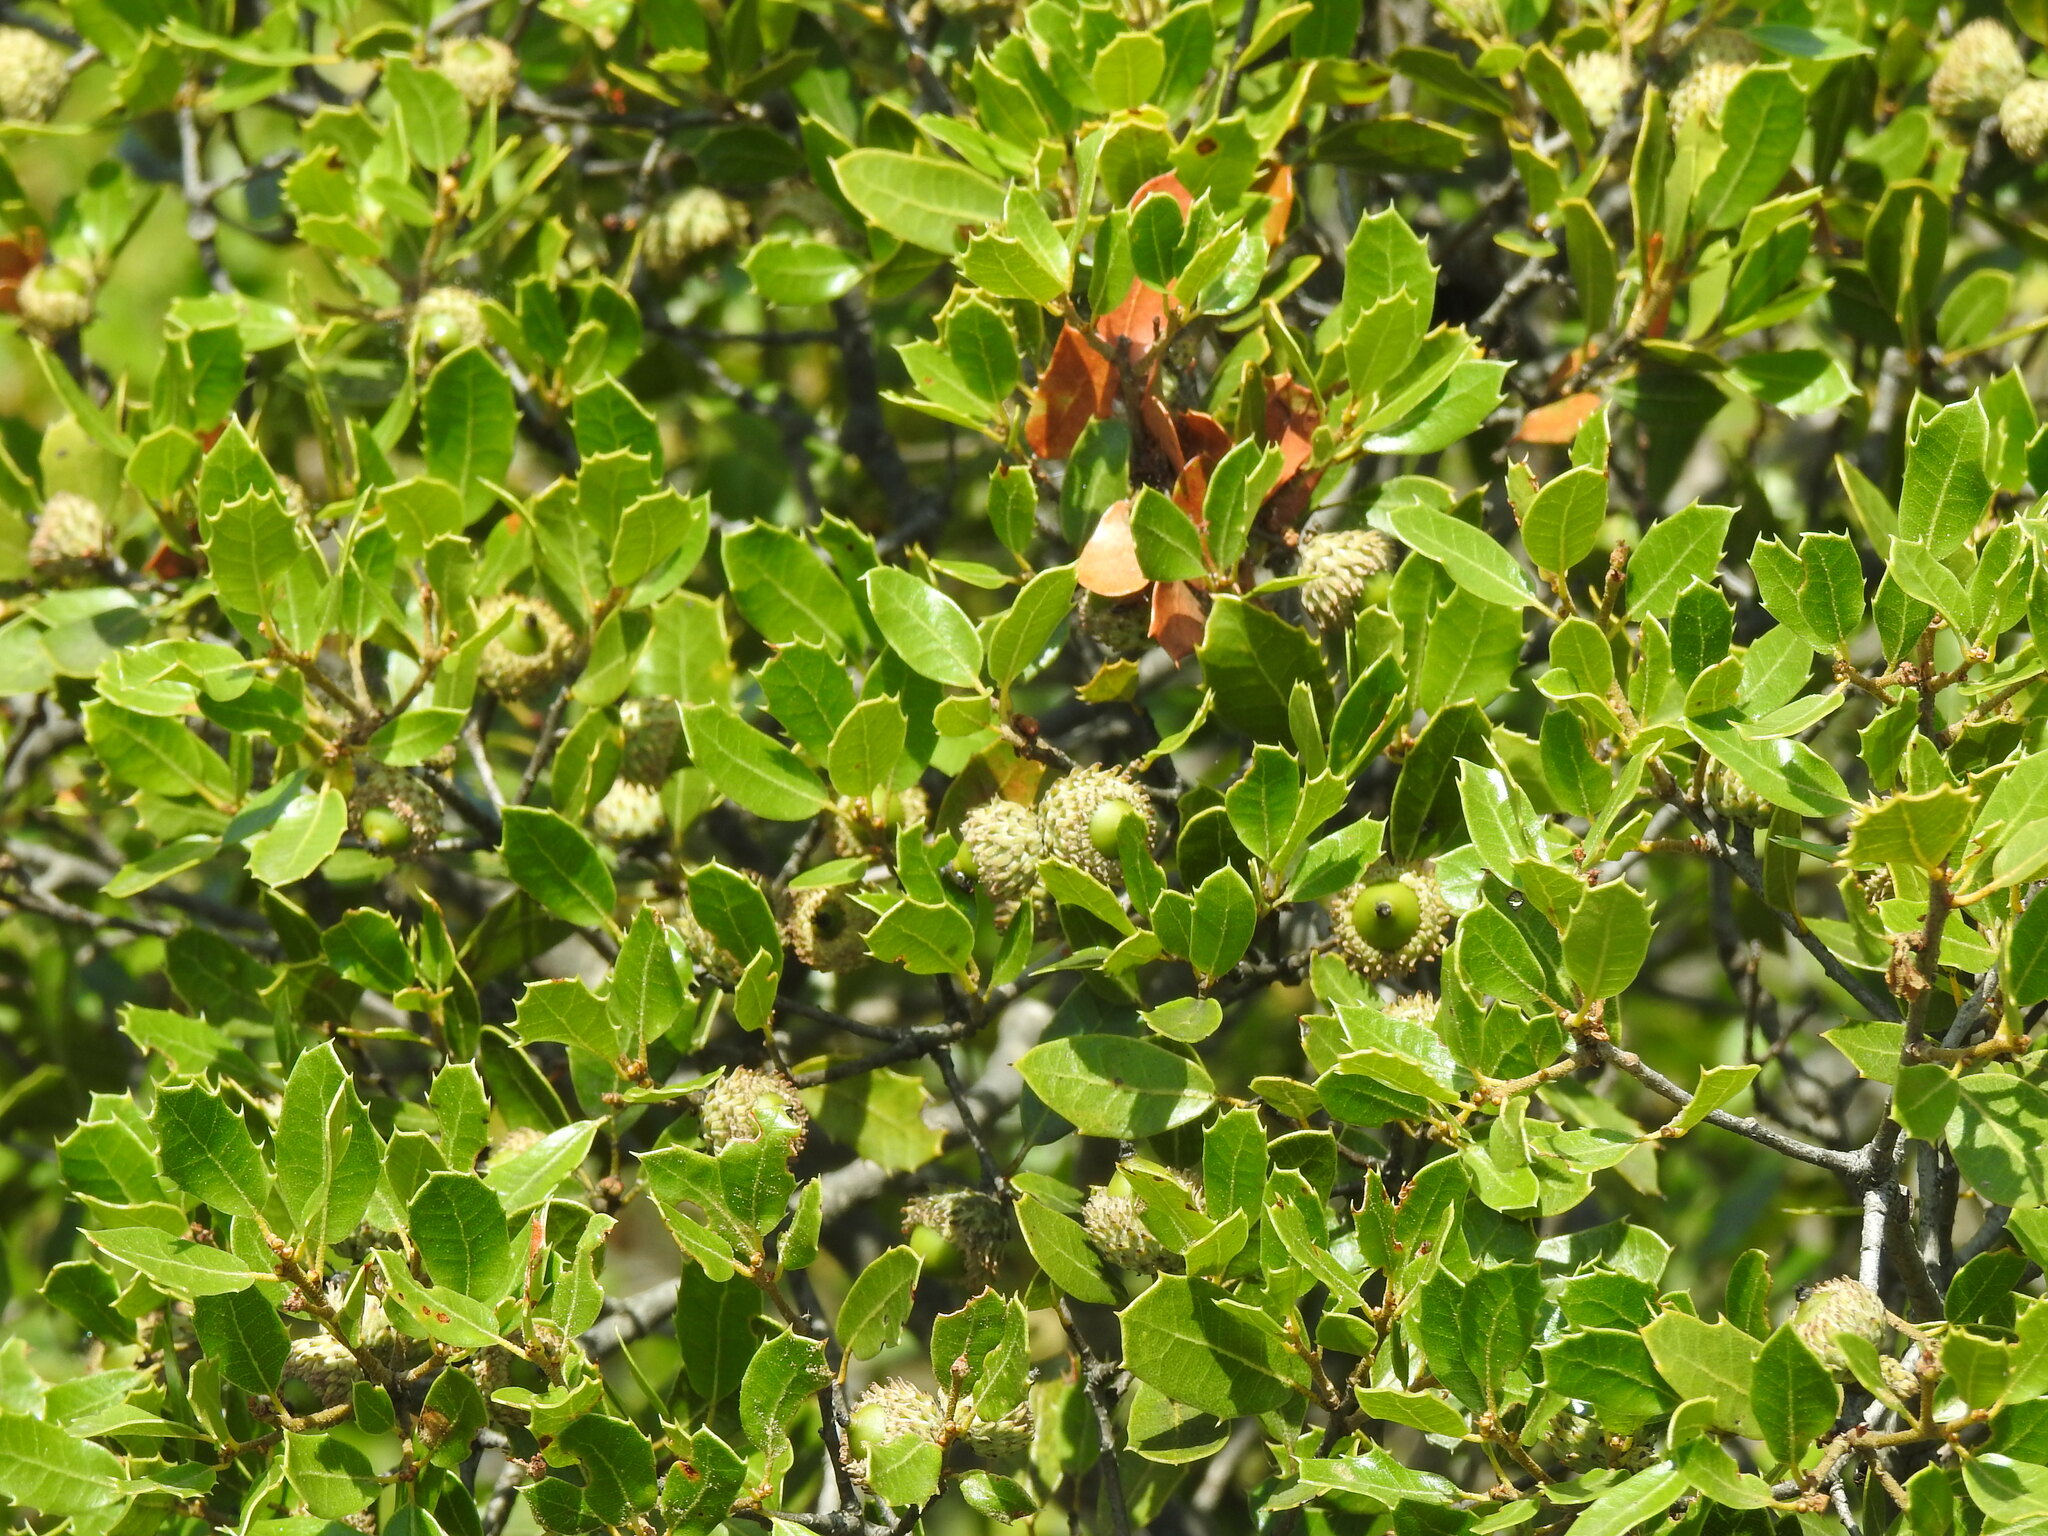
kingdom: Plantae
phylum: Tracheophyta
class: Magnoliopsida
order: Fagales
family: Fagaceae
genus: Quercus
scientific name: Quercus coccifera
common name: Kermes oak
